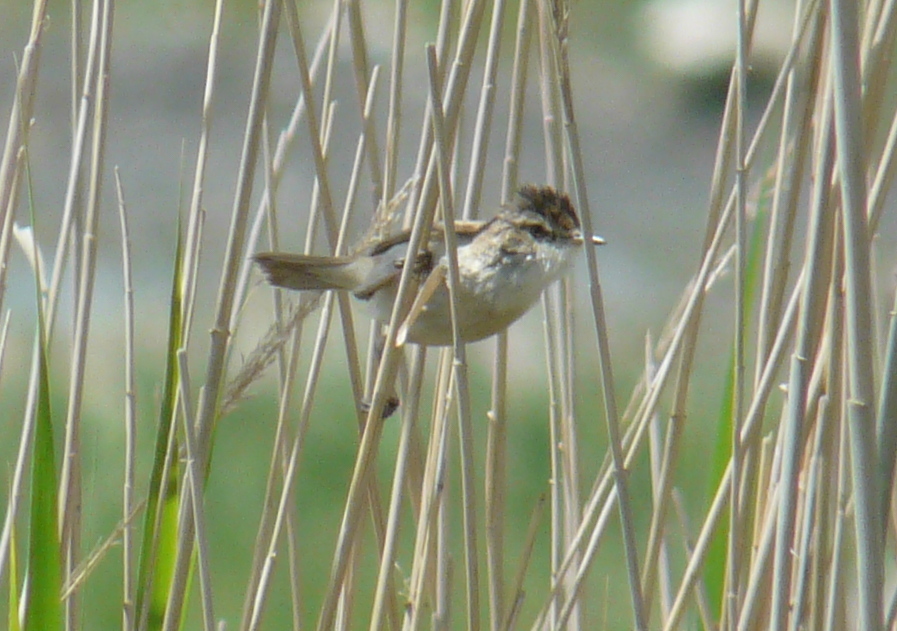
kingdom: Animalia
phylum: Chordata
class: Aves
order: Passeriformes
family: Acrocephalidae
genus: Acrocephalus
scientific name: Acrocephalus agricola
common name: Paddyfield warbler
